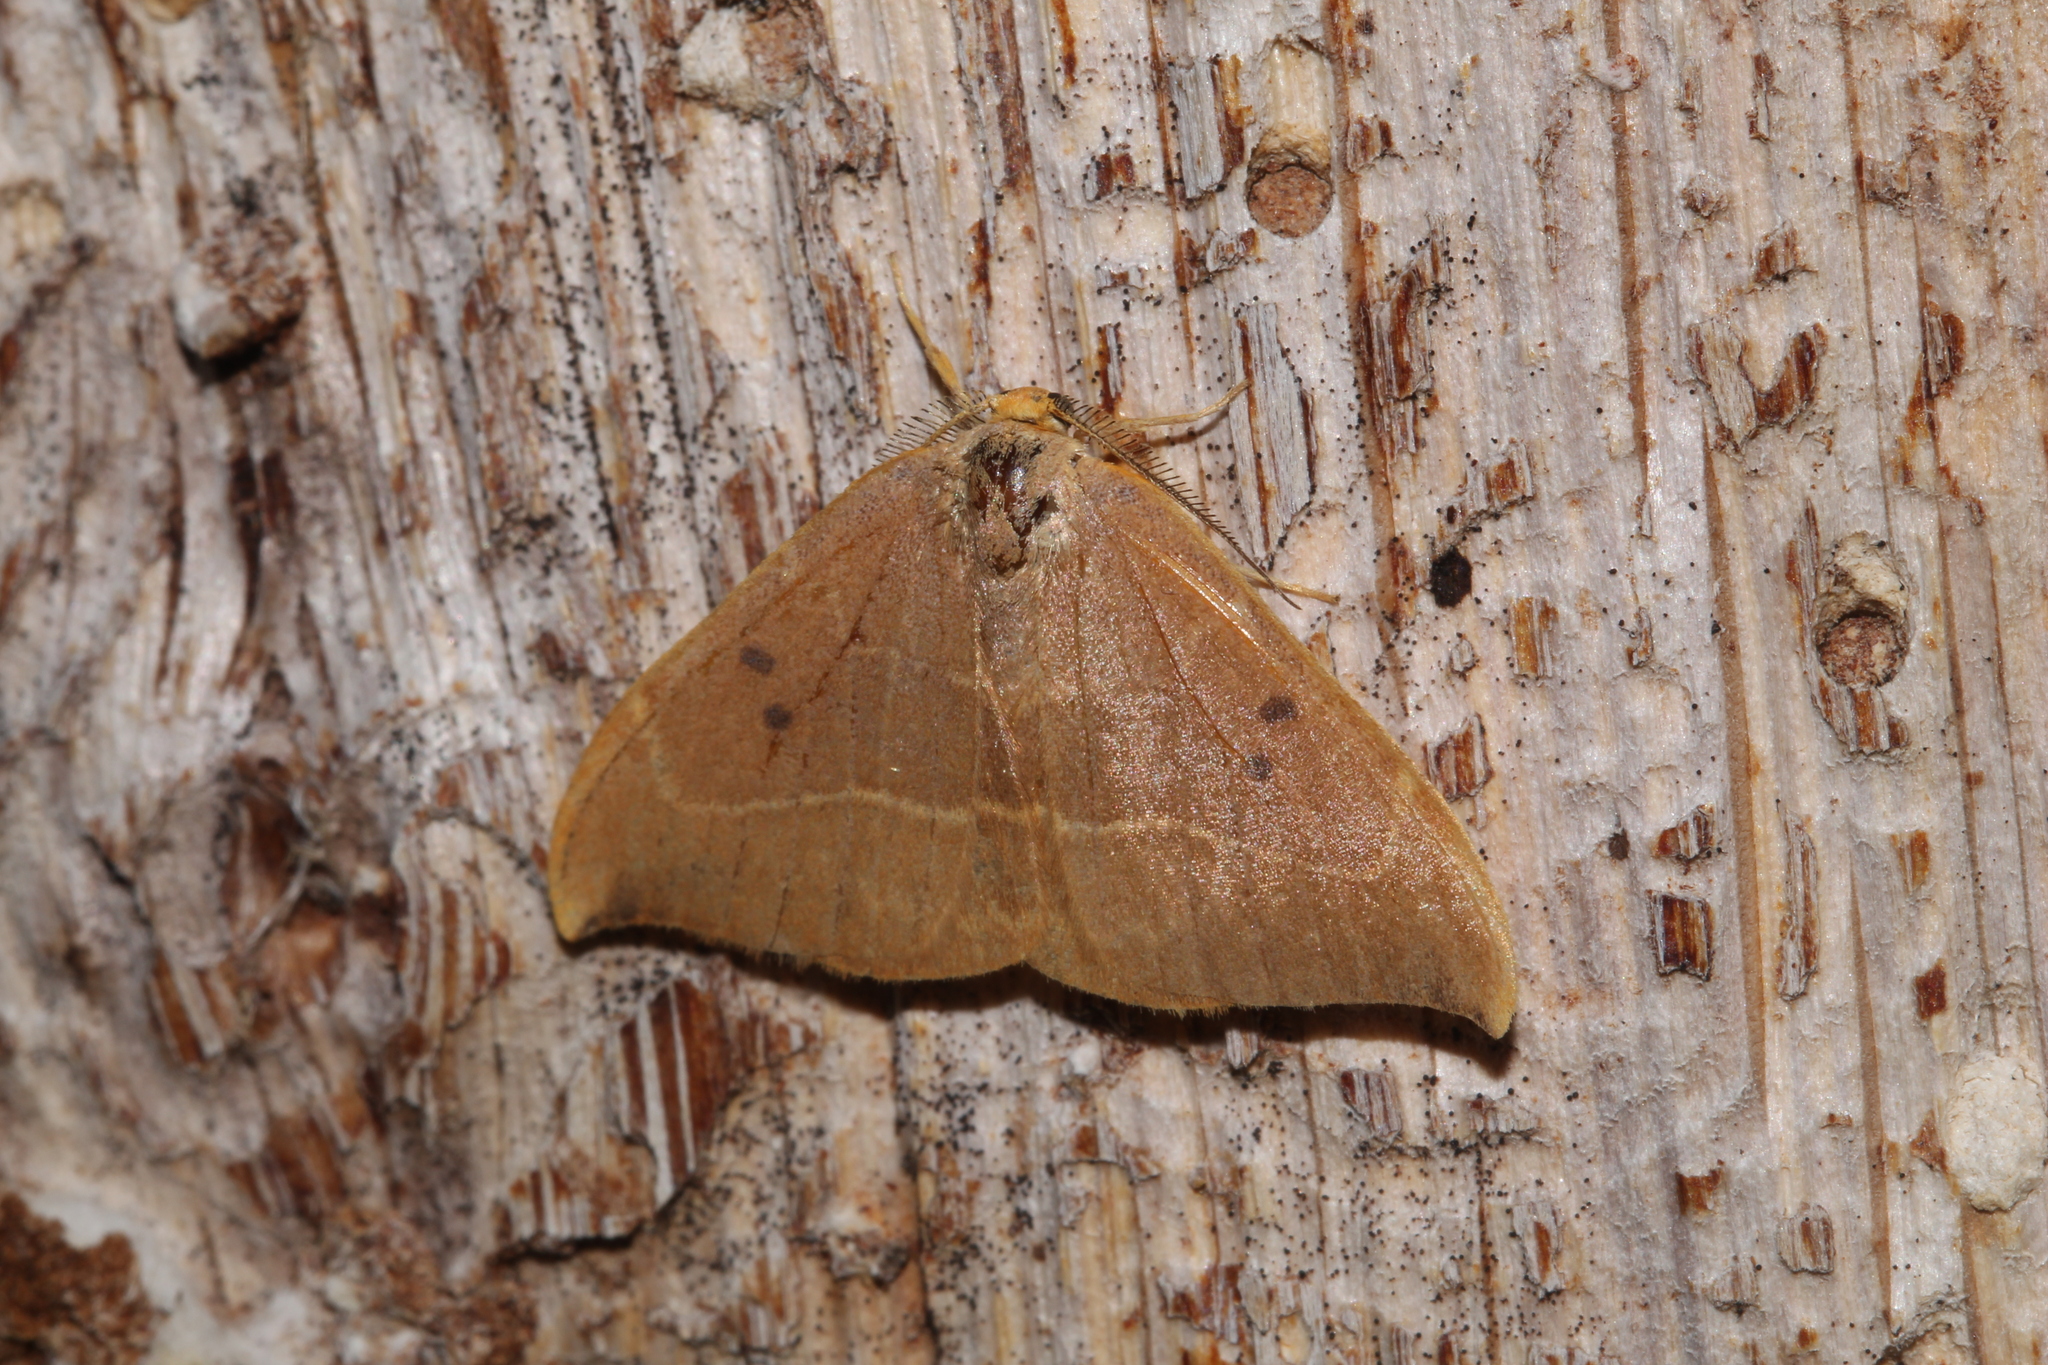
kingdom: Animalia
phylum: Arthropoda
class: Insecta
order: Lepidoptera
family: Drepanidae
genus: Watsonalla
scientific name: Watsonalla binaria
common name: Oak hook-tip
